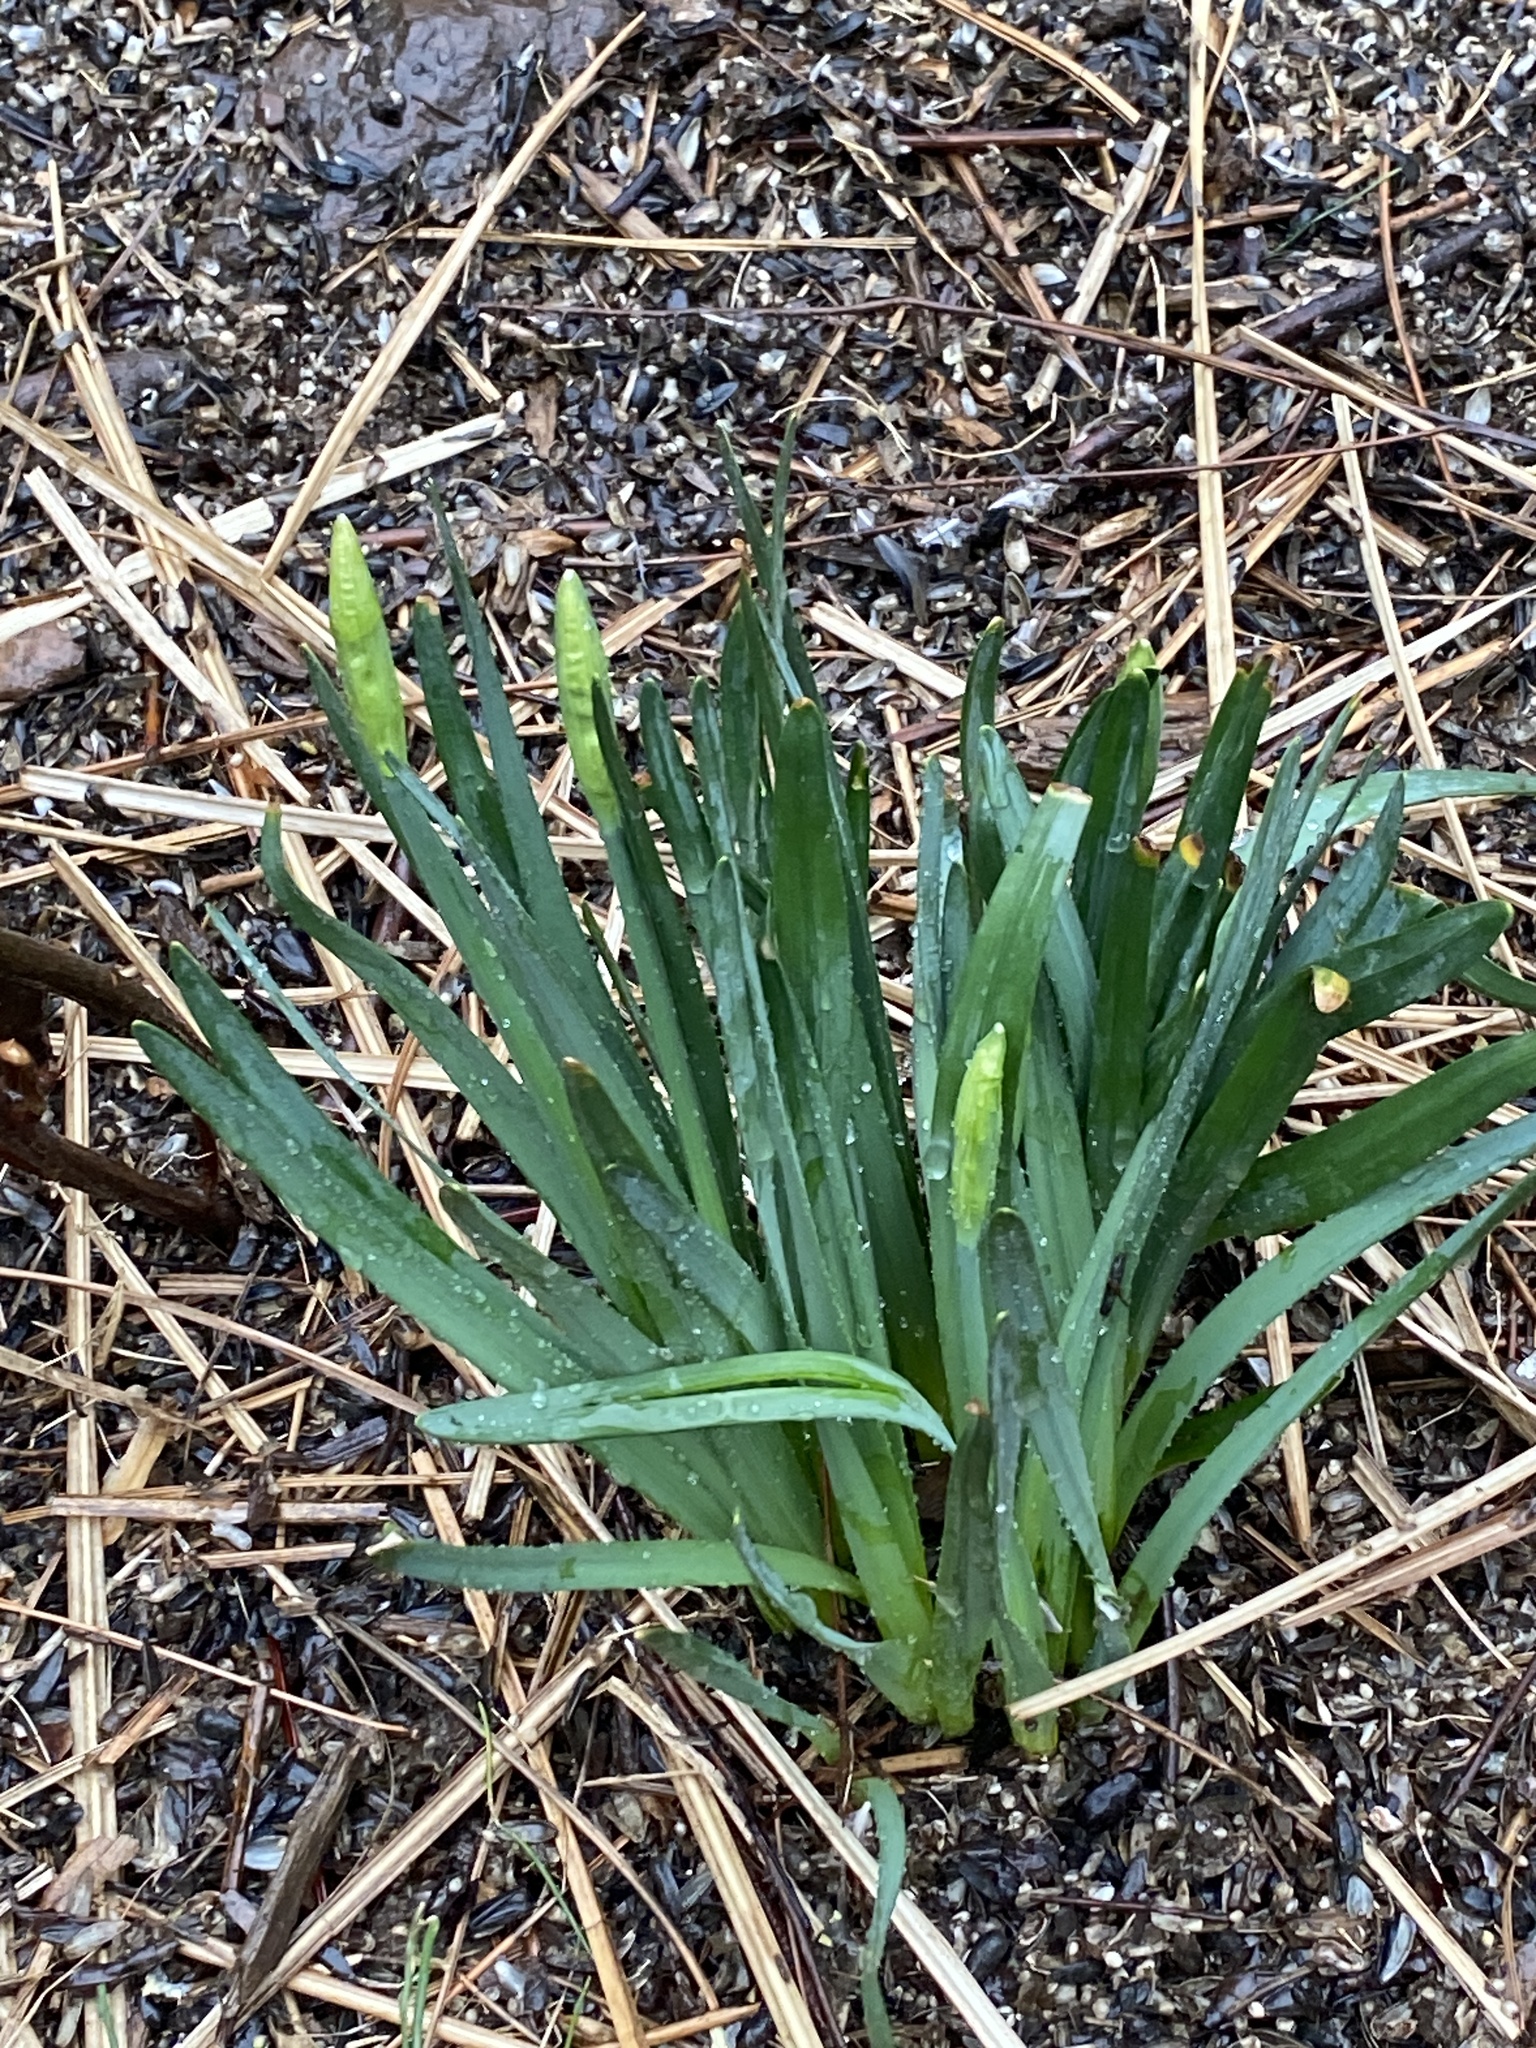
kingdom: Plantae
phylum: Tracheophyta
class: Liliopsida
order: Asparagales
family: Amaryllidaceae
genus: Narcissus
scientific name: Narcissus
